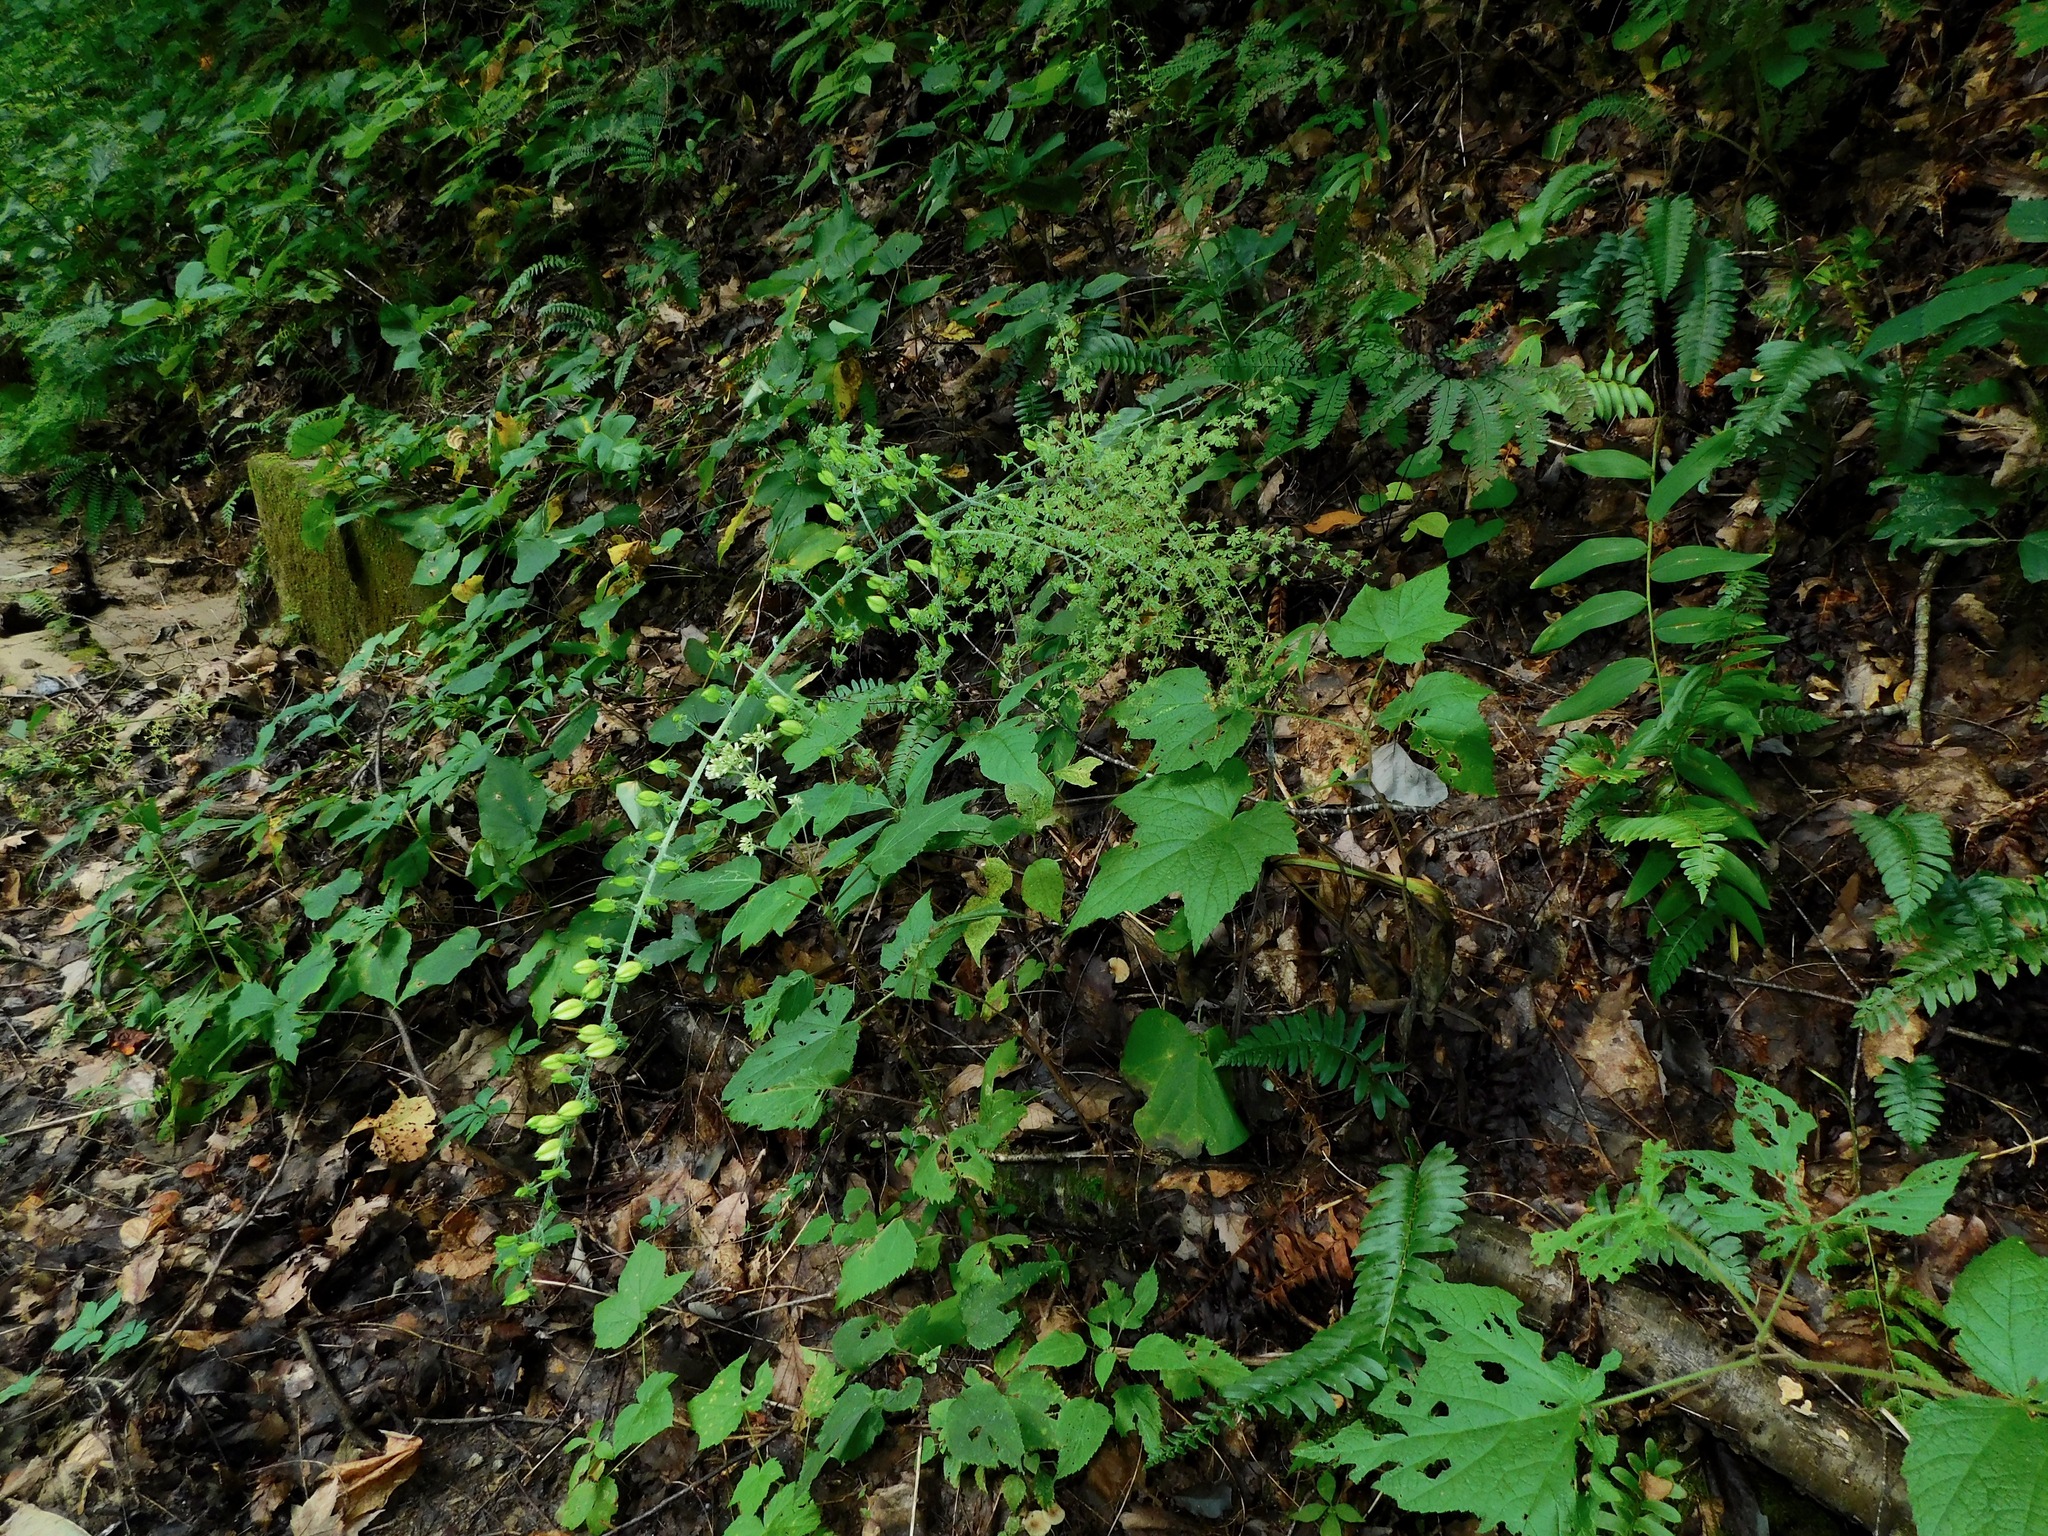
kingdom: Plantae
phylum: Tracheophyta
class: Liliopsida
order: Liliales
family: Melanthiaceae
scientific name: Melanthiaceae
